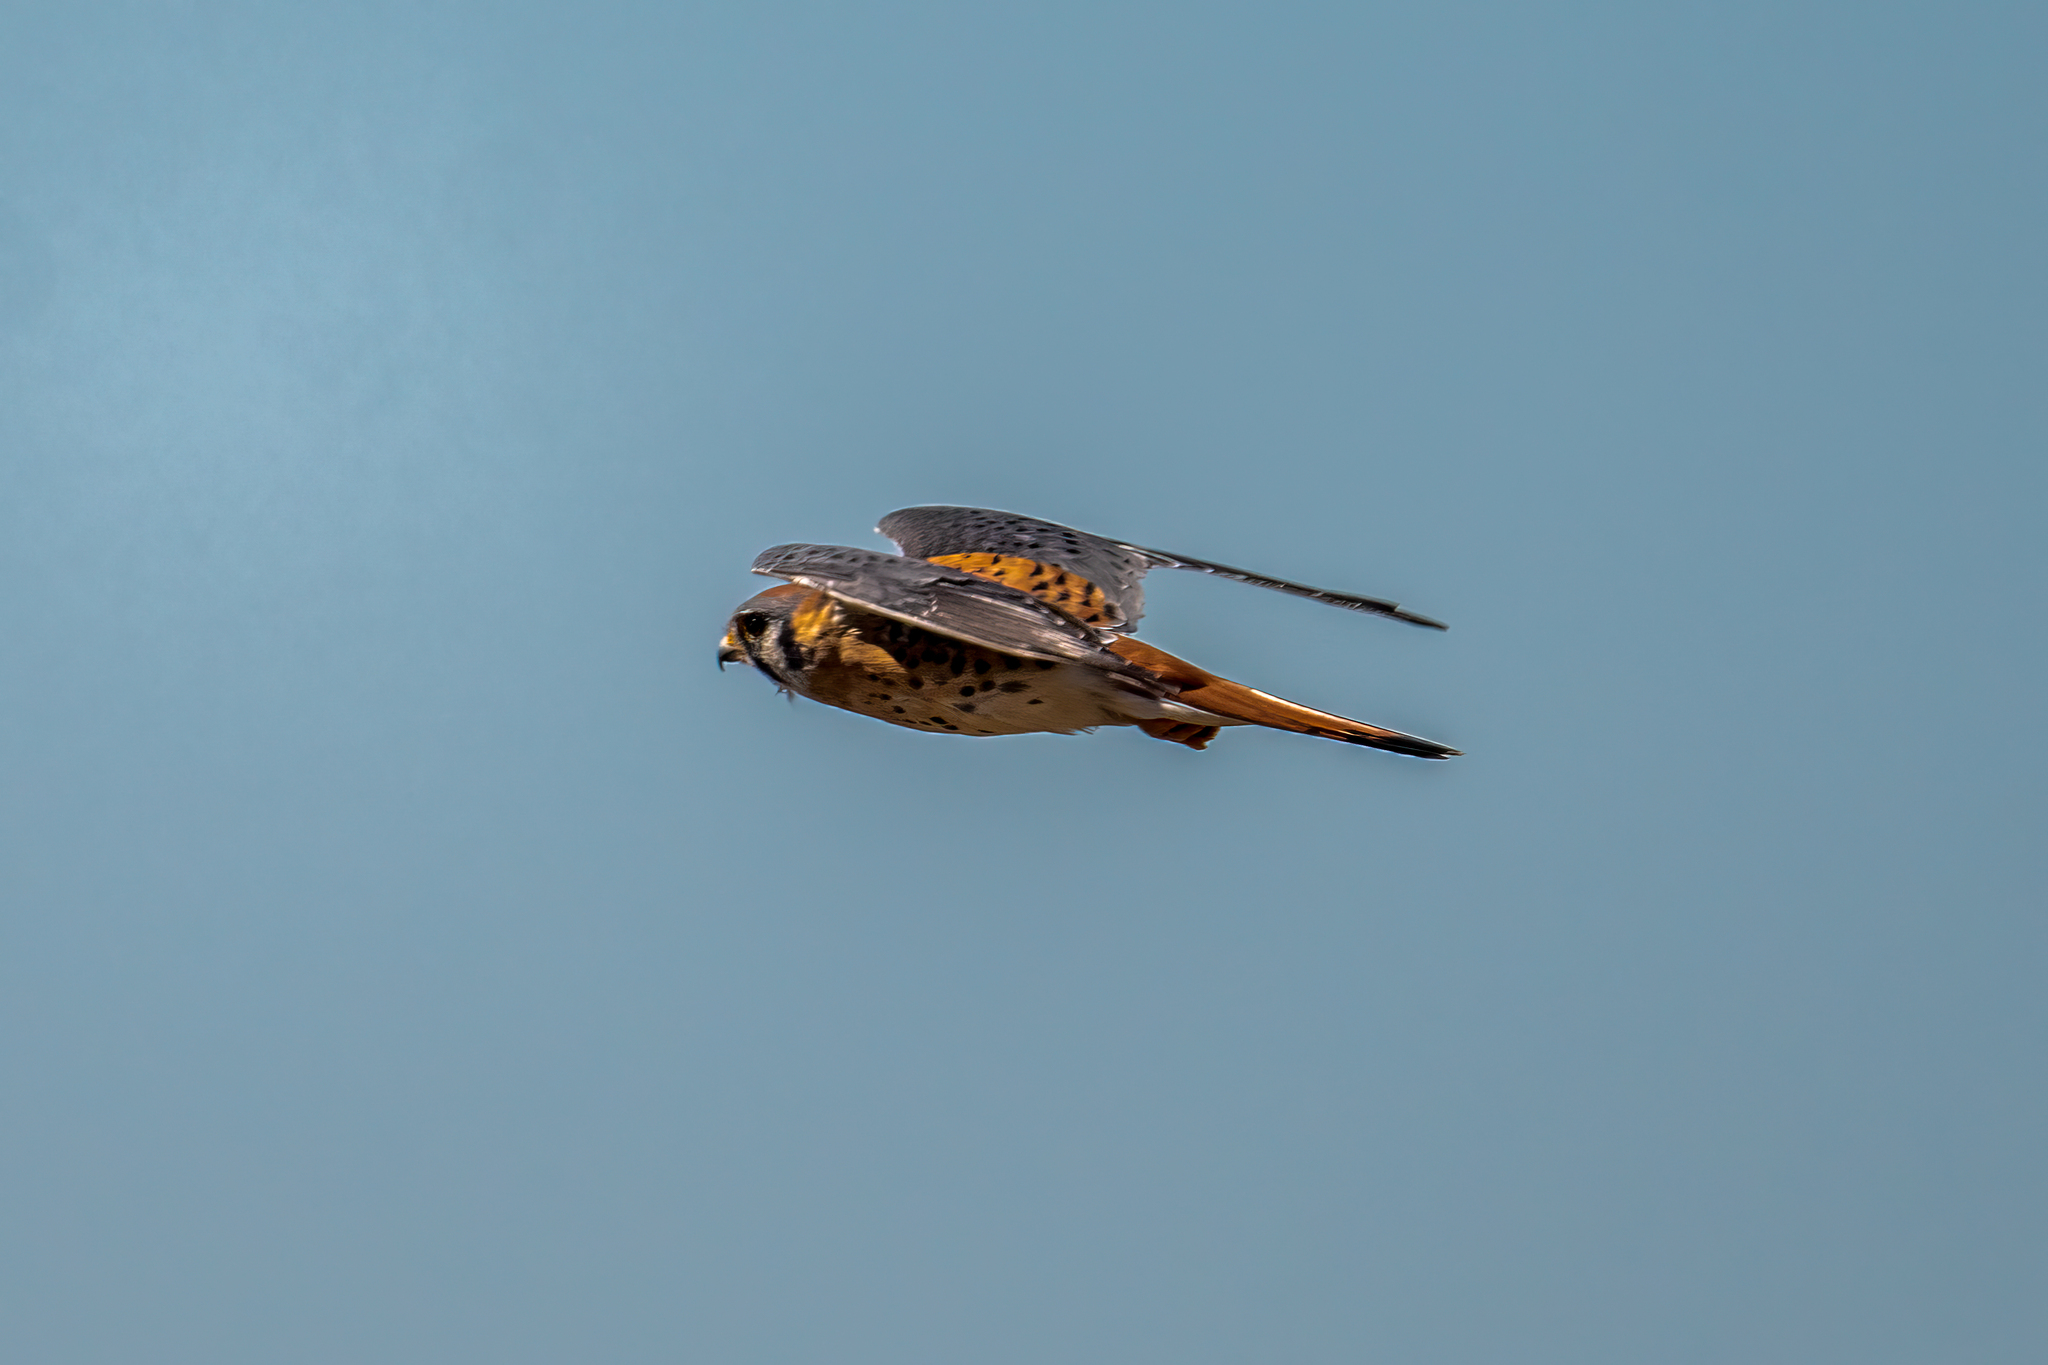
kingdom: Animalia
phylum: Chordata
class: Aves
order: Falconiformes
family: Falconidae
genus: Falco
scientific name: Falco sparverius
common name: American kestrel
